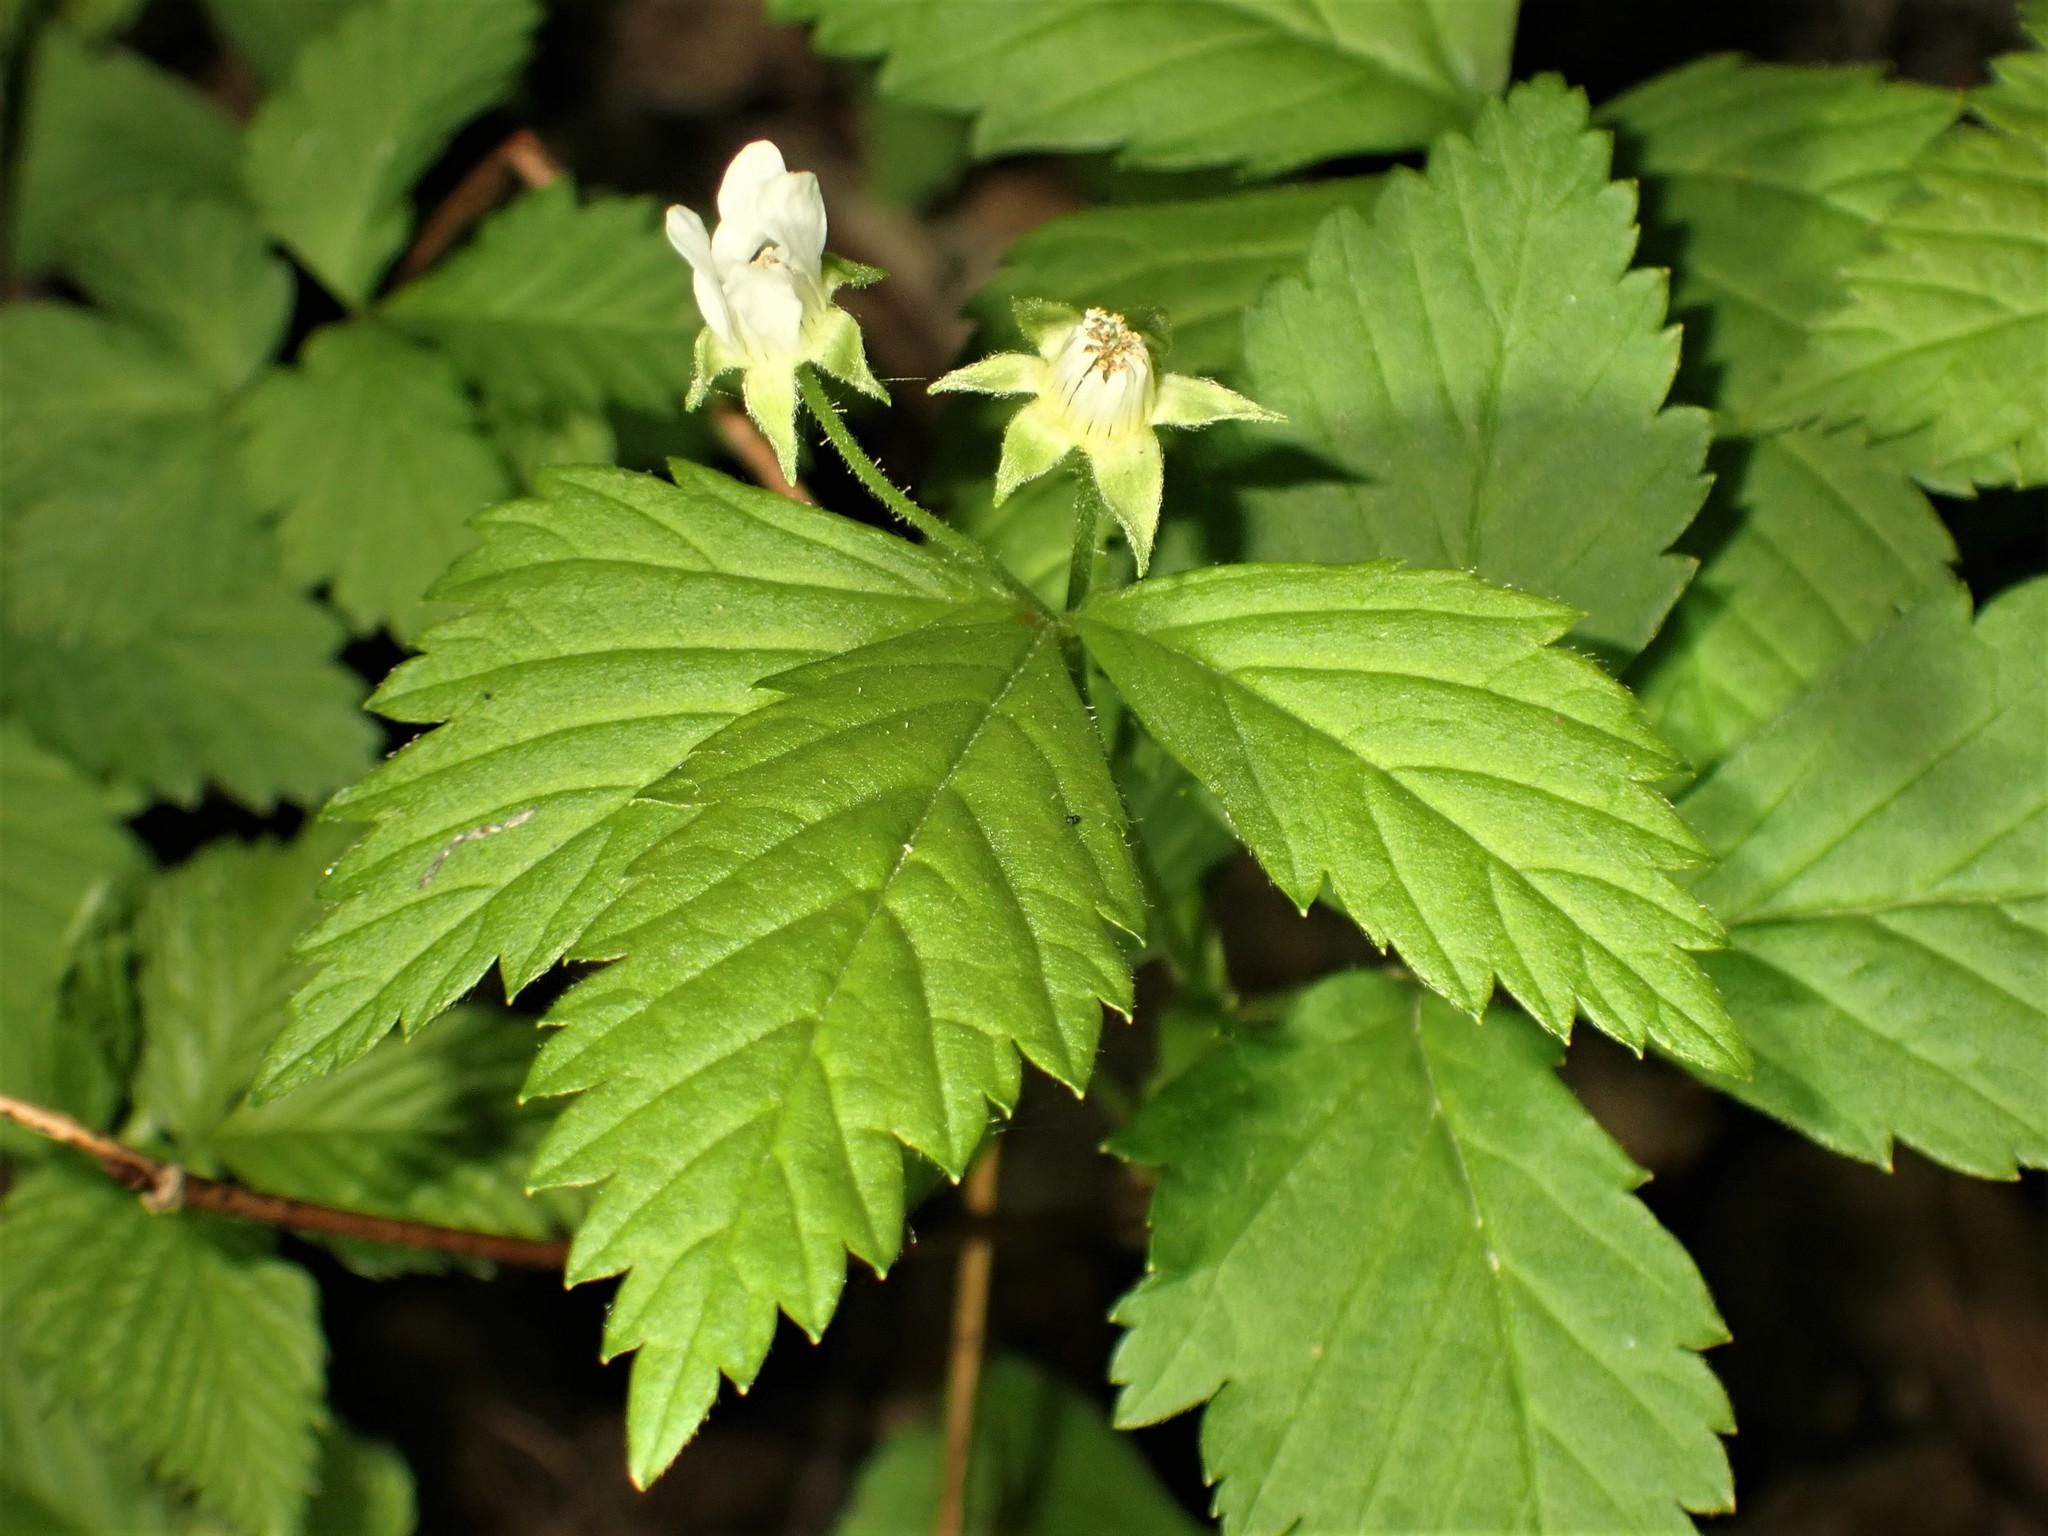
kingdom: Plantae
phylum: Tracheophyta
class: Magnoliopsida
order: Rosales
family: Rosaceae
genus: Rubus
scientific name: Rubus pubescens
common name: Dwarf raspberry
